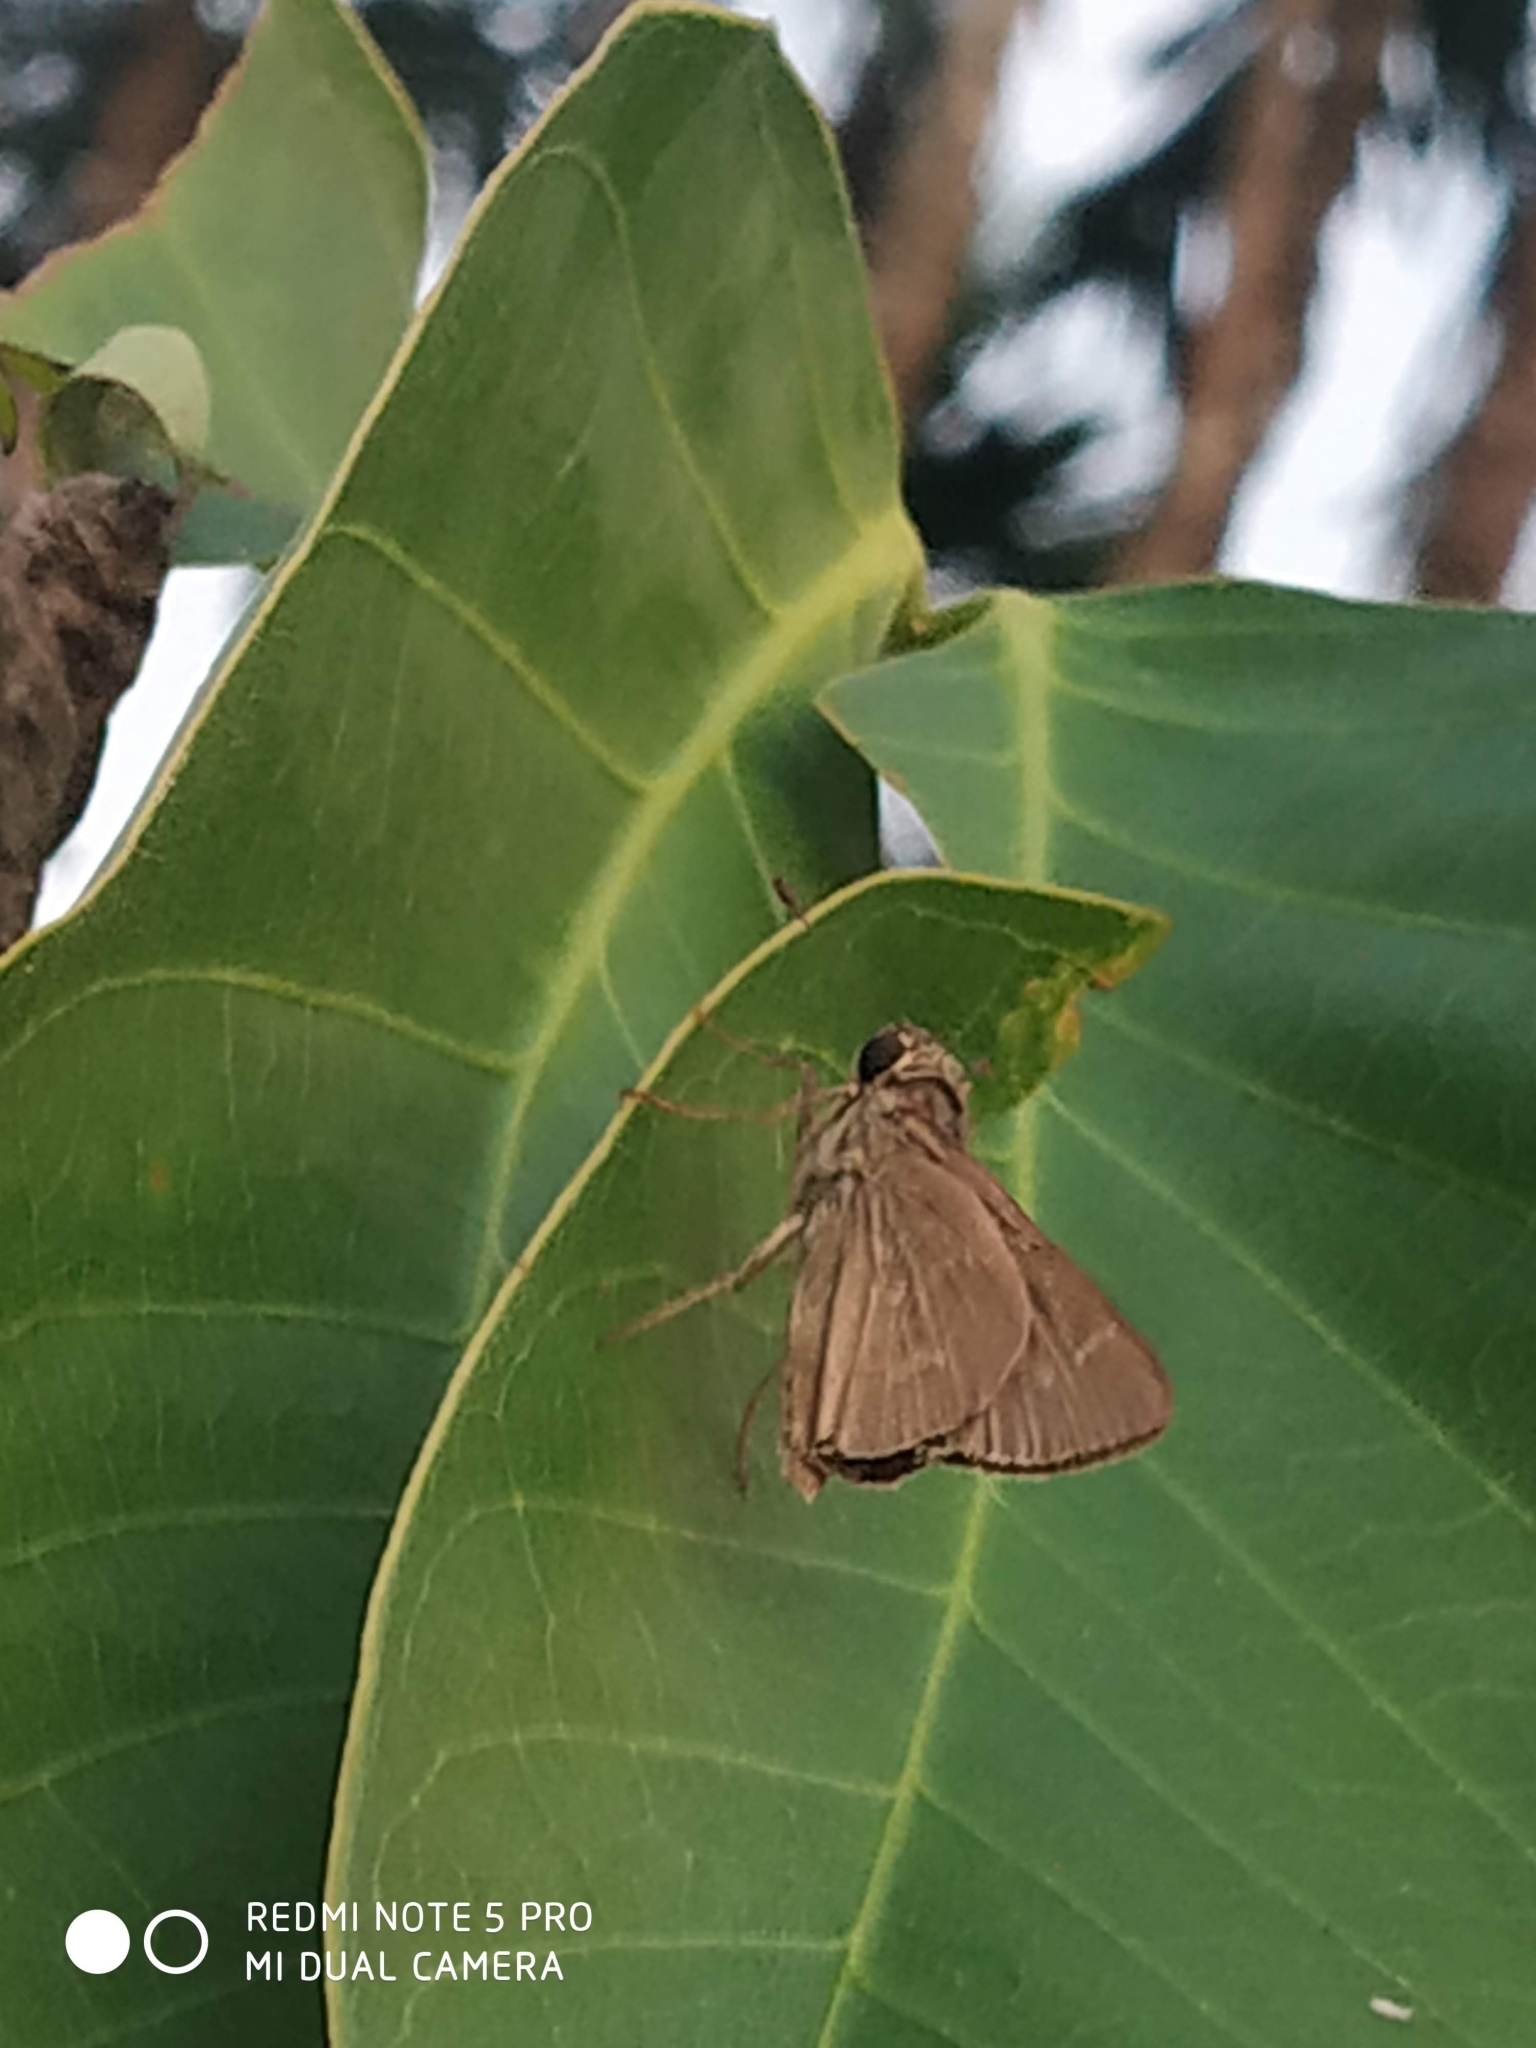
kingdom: Animalia
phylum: Arthropoda
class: Insecta
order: Lepidoptera
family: Hesperiidae
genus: Parnara
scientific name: Parnara naso
